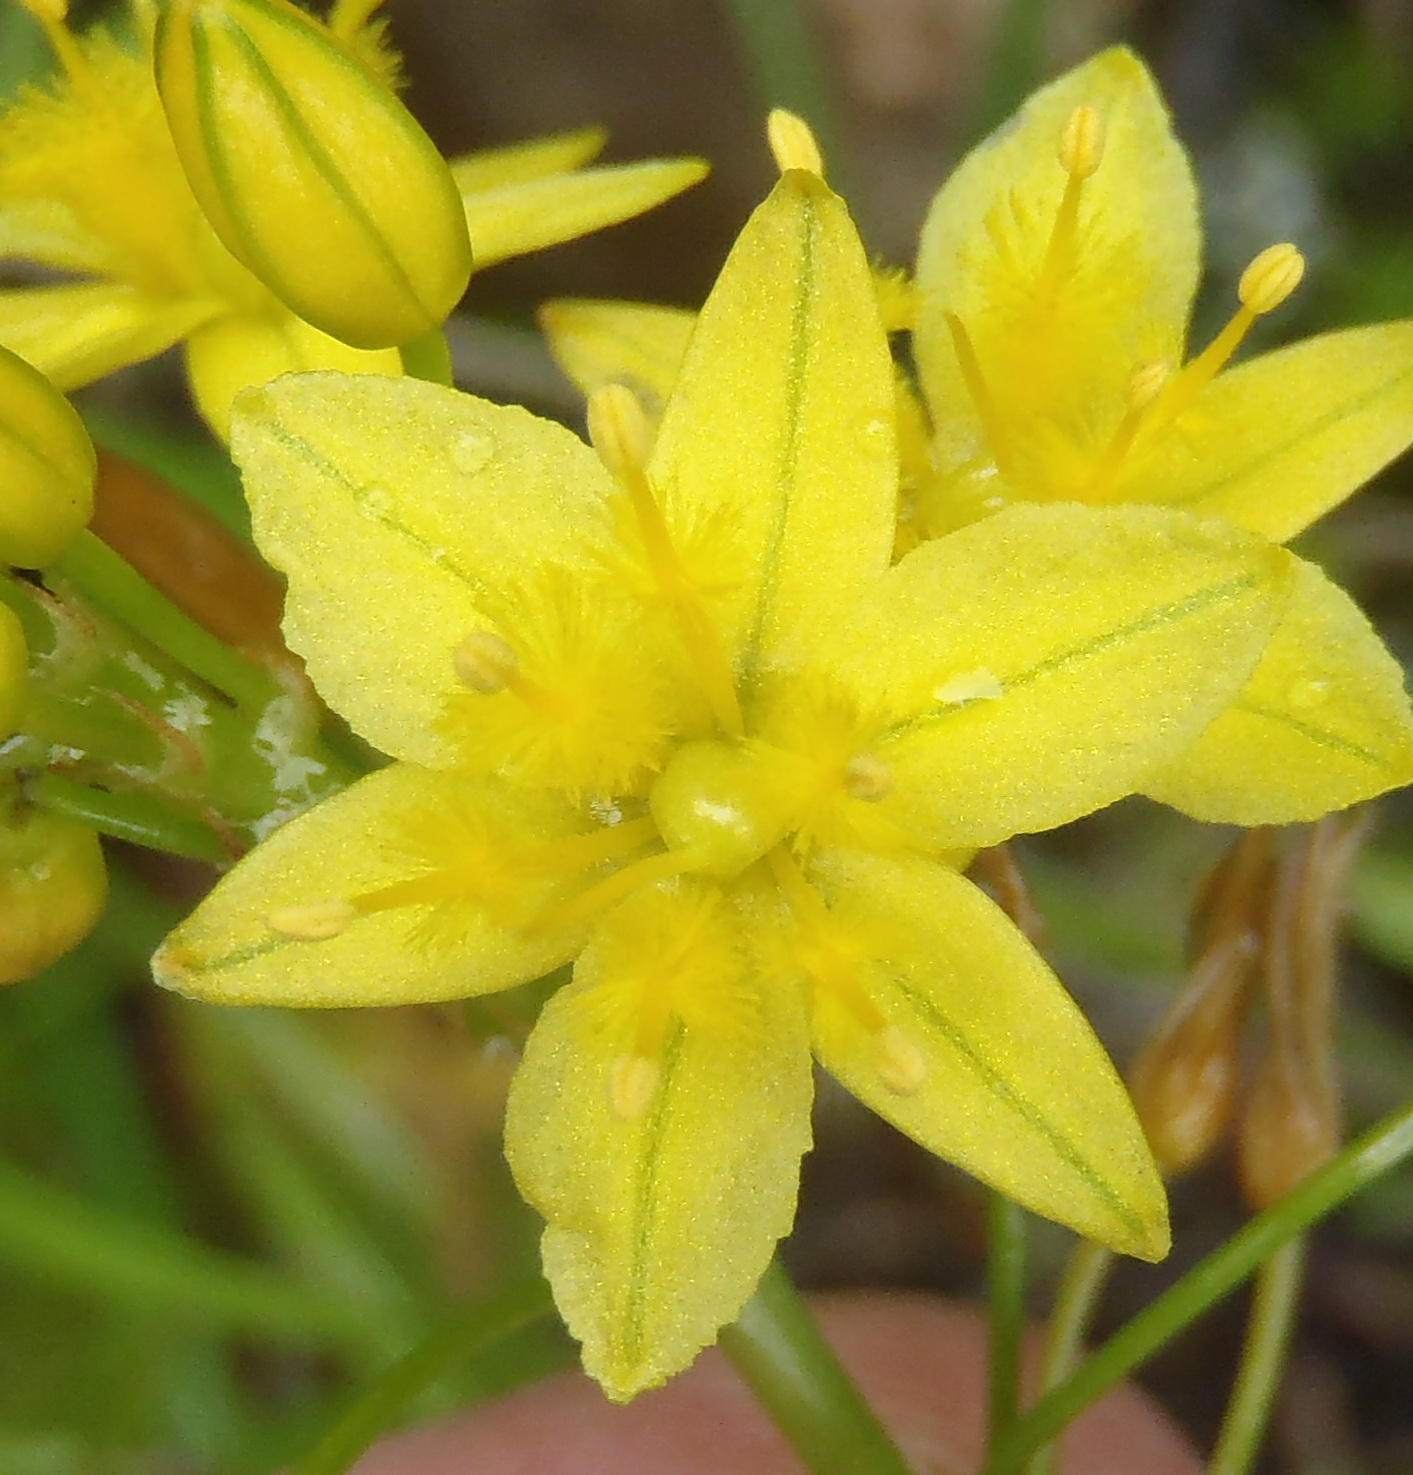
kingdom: Plantae
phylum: Tracheophyta
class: Liliopsida
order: Asparagales
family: Asphodelaceae
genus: Bulbine
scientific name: Bulbine audreyae
